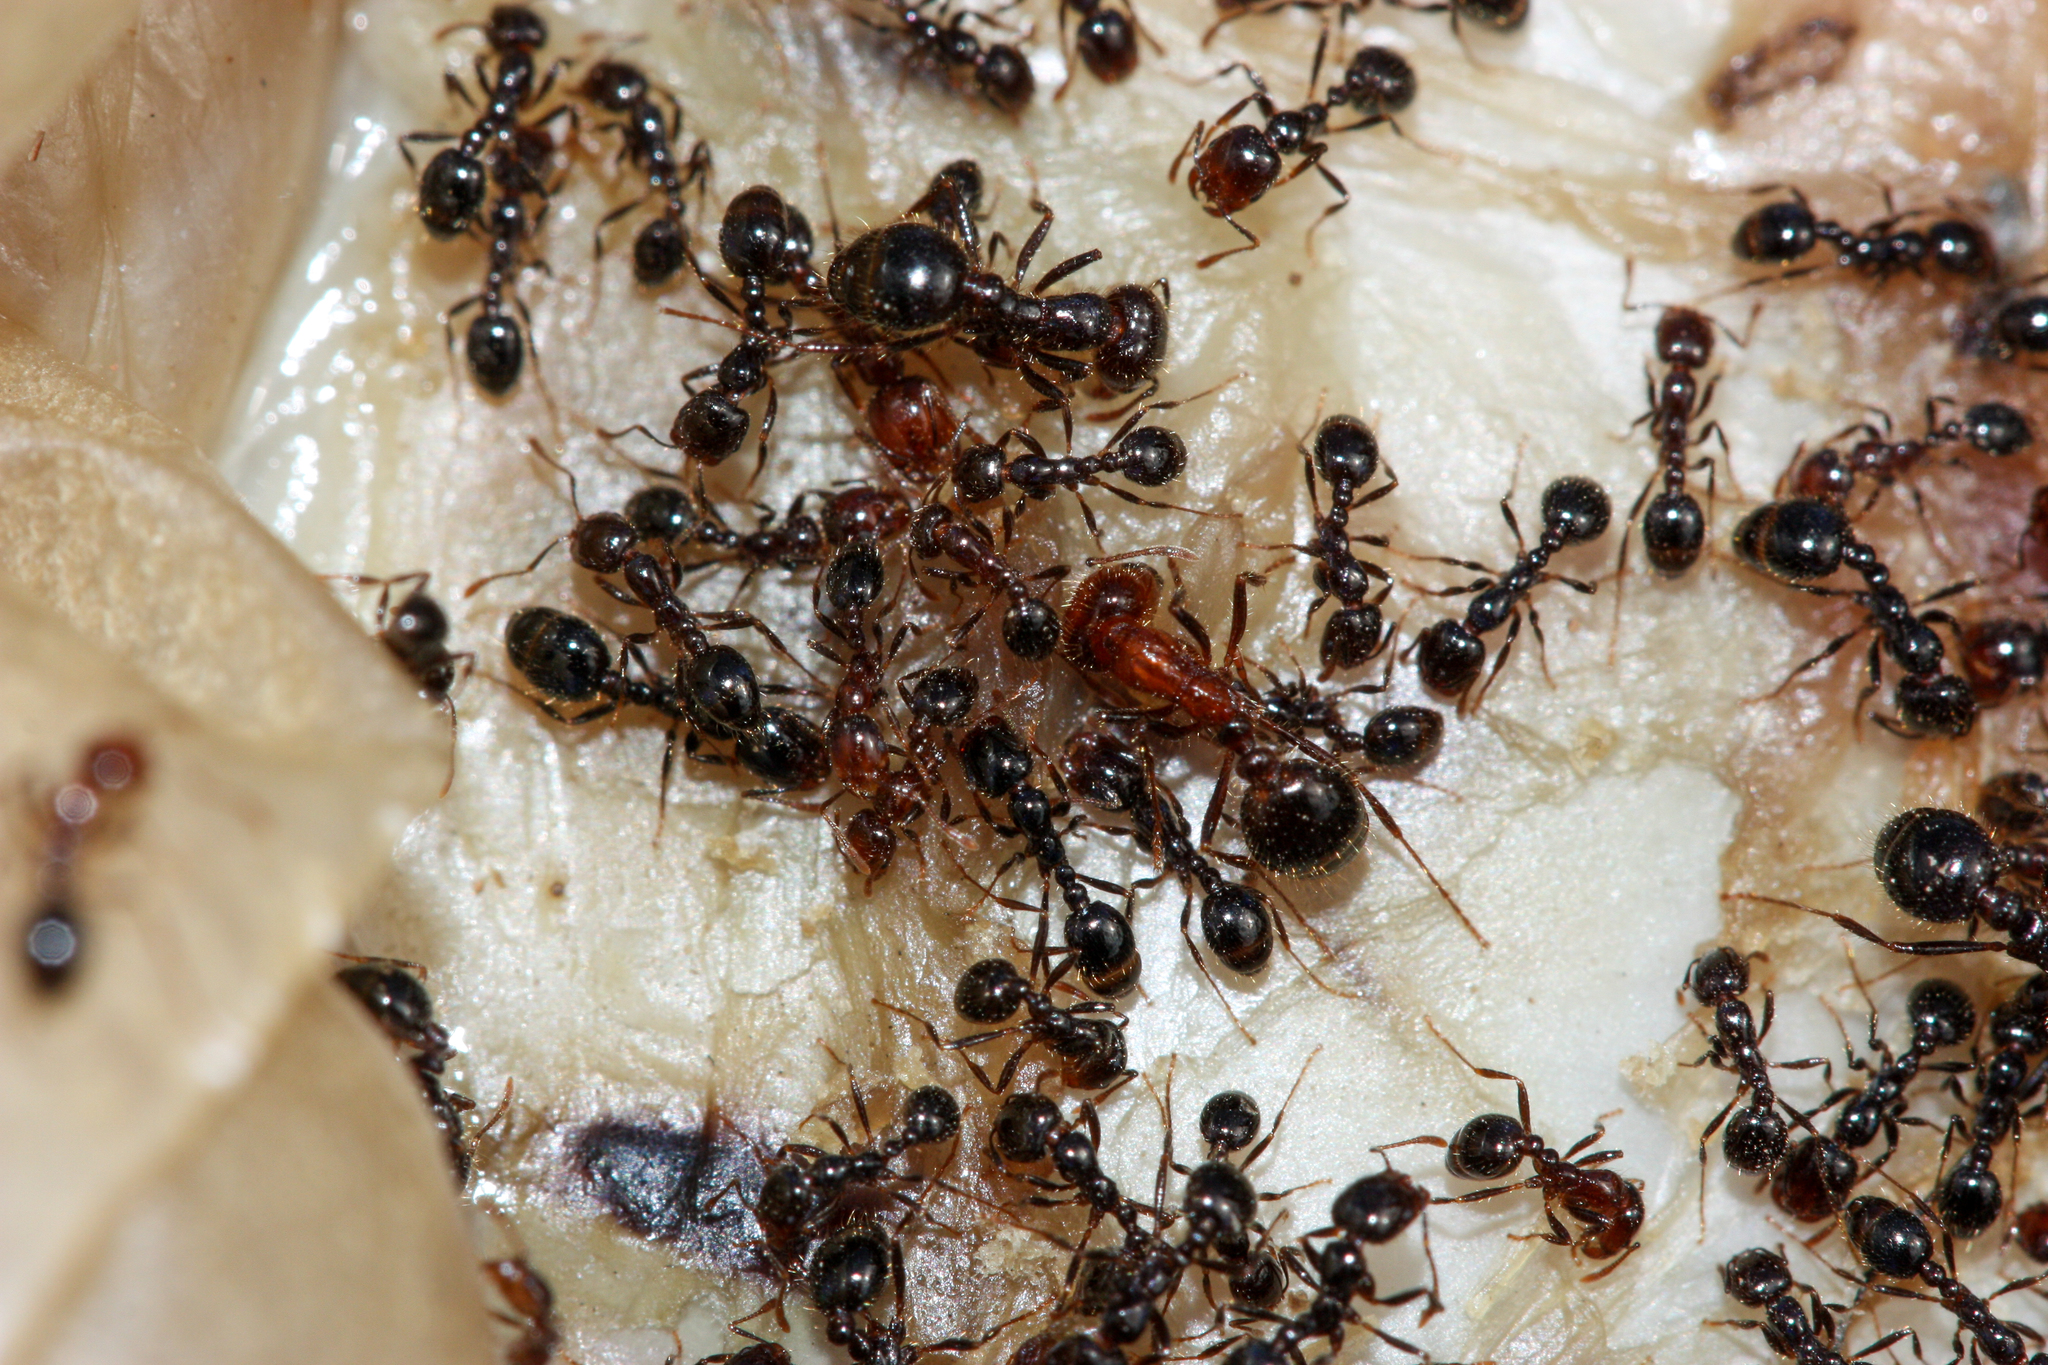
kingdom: Animalia
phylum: Arthropoda
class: Insecta
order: Hymenoptera
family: Formicidae
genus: Solenopsis
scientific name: Solenopsis xyloni
